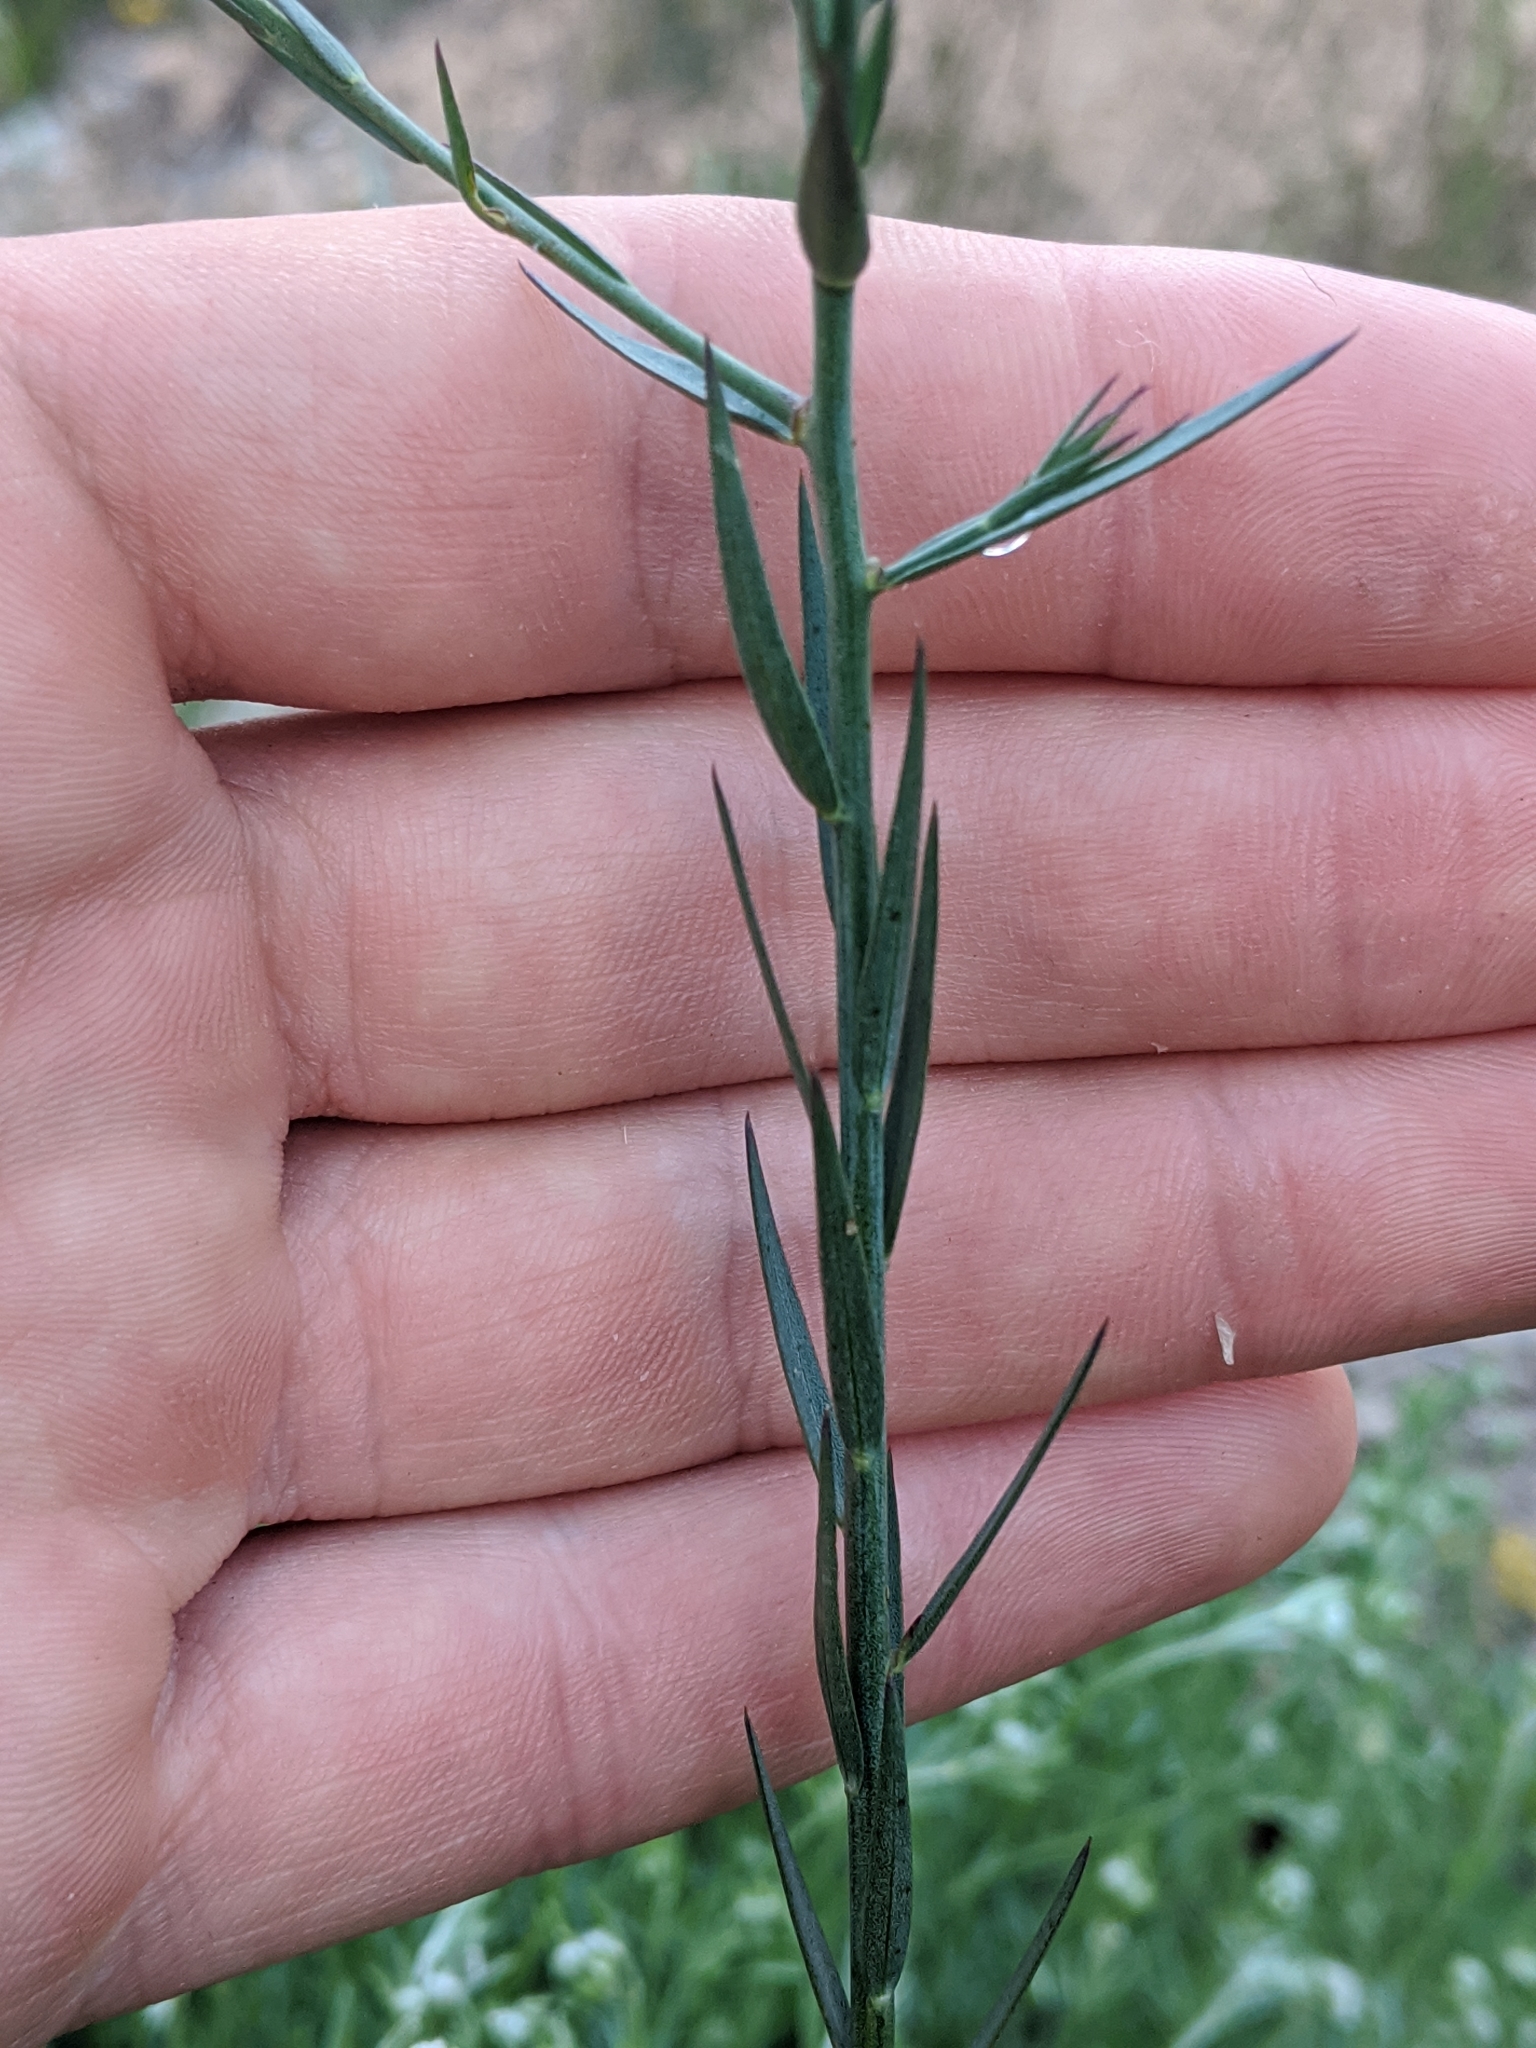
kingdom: Plantae
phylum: Tracheophyta
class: Magnoliopsida
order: Malpighiales
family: Linaceae
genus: Linum
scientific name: Linum narbonense
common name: Flax
